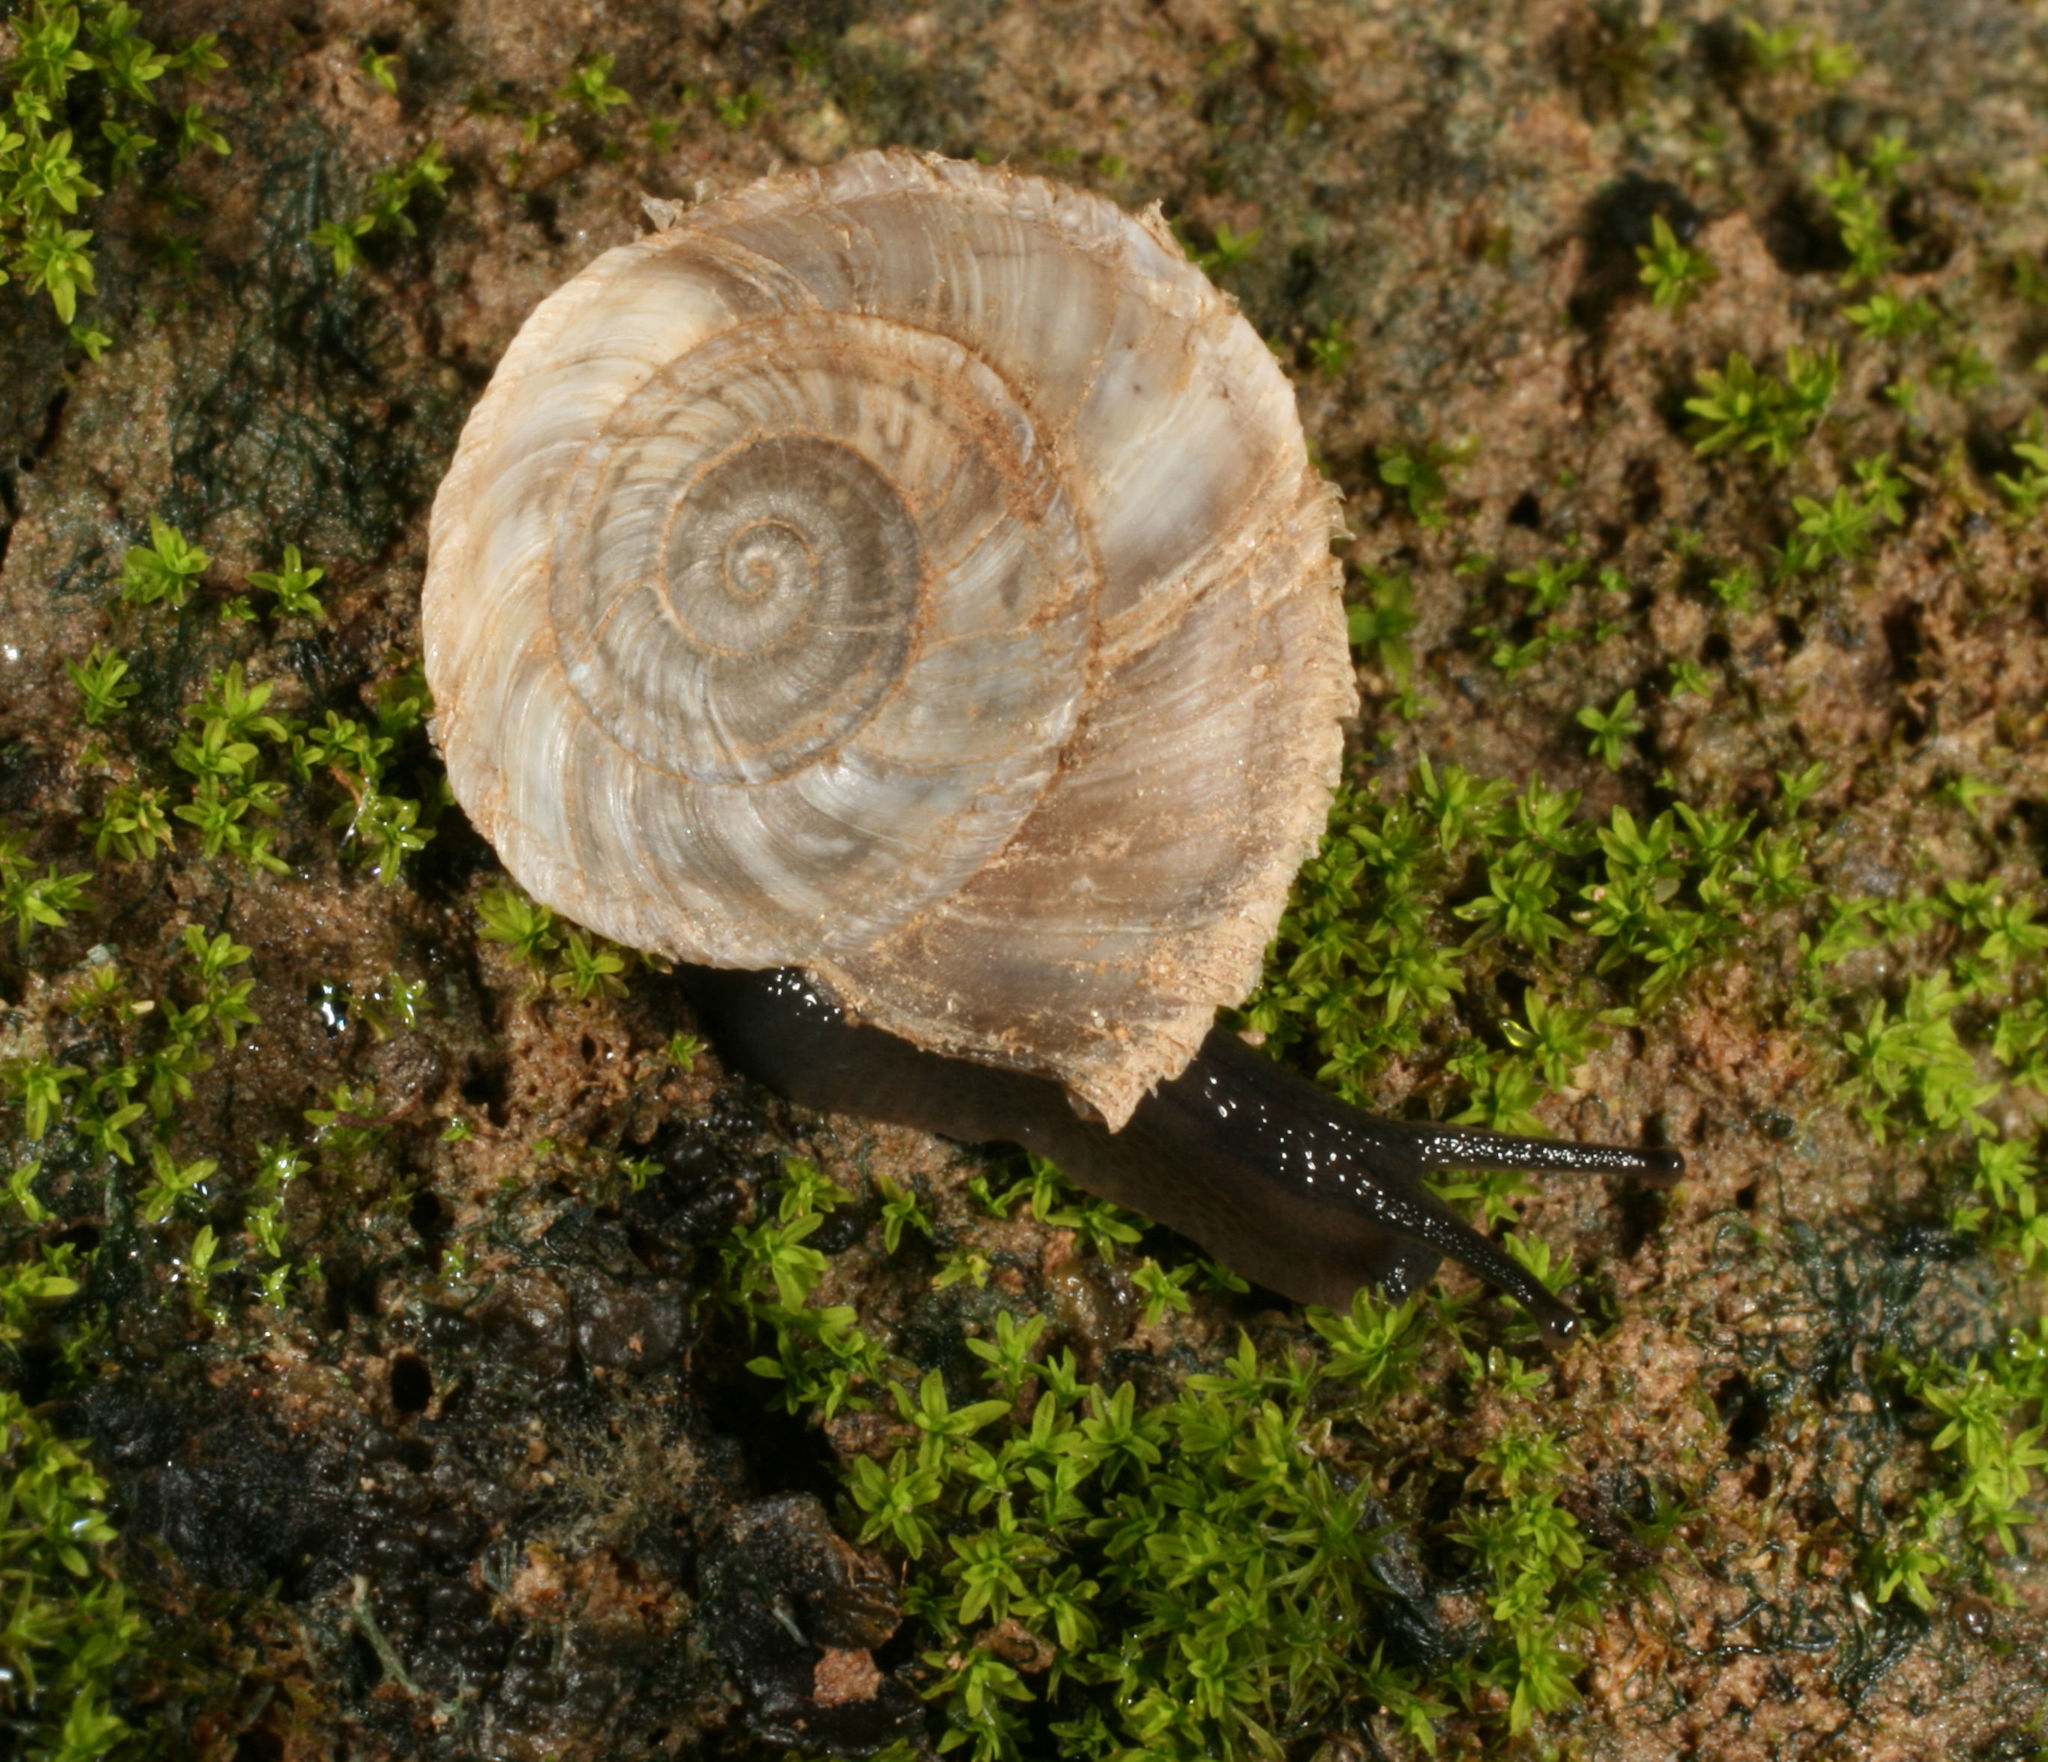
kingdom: Animalia
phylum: Mollusca
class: Gastropoda
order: Stylommatophora
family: Oreohelicidae
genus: Oreohelix
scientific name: Oreohelix concentrata
